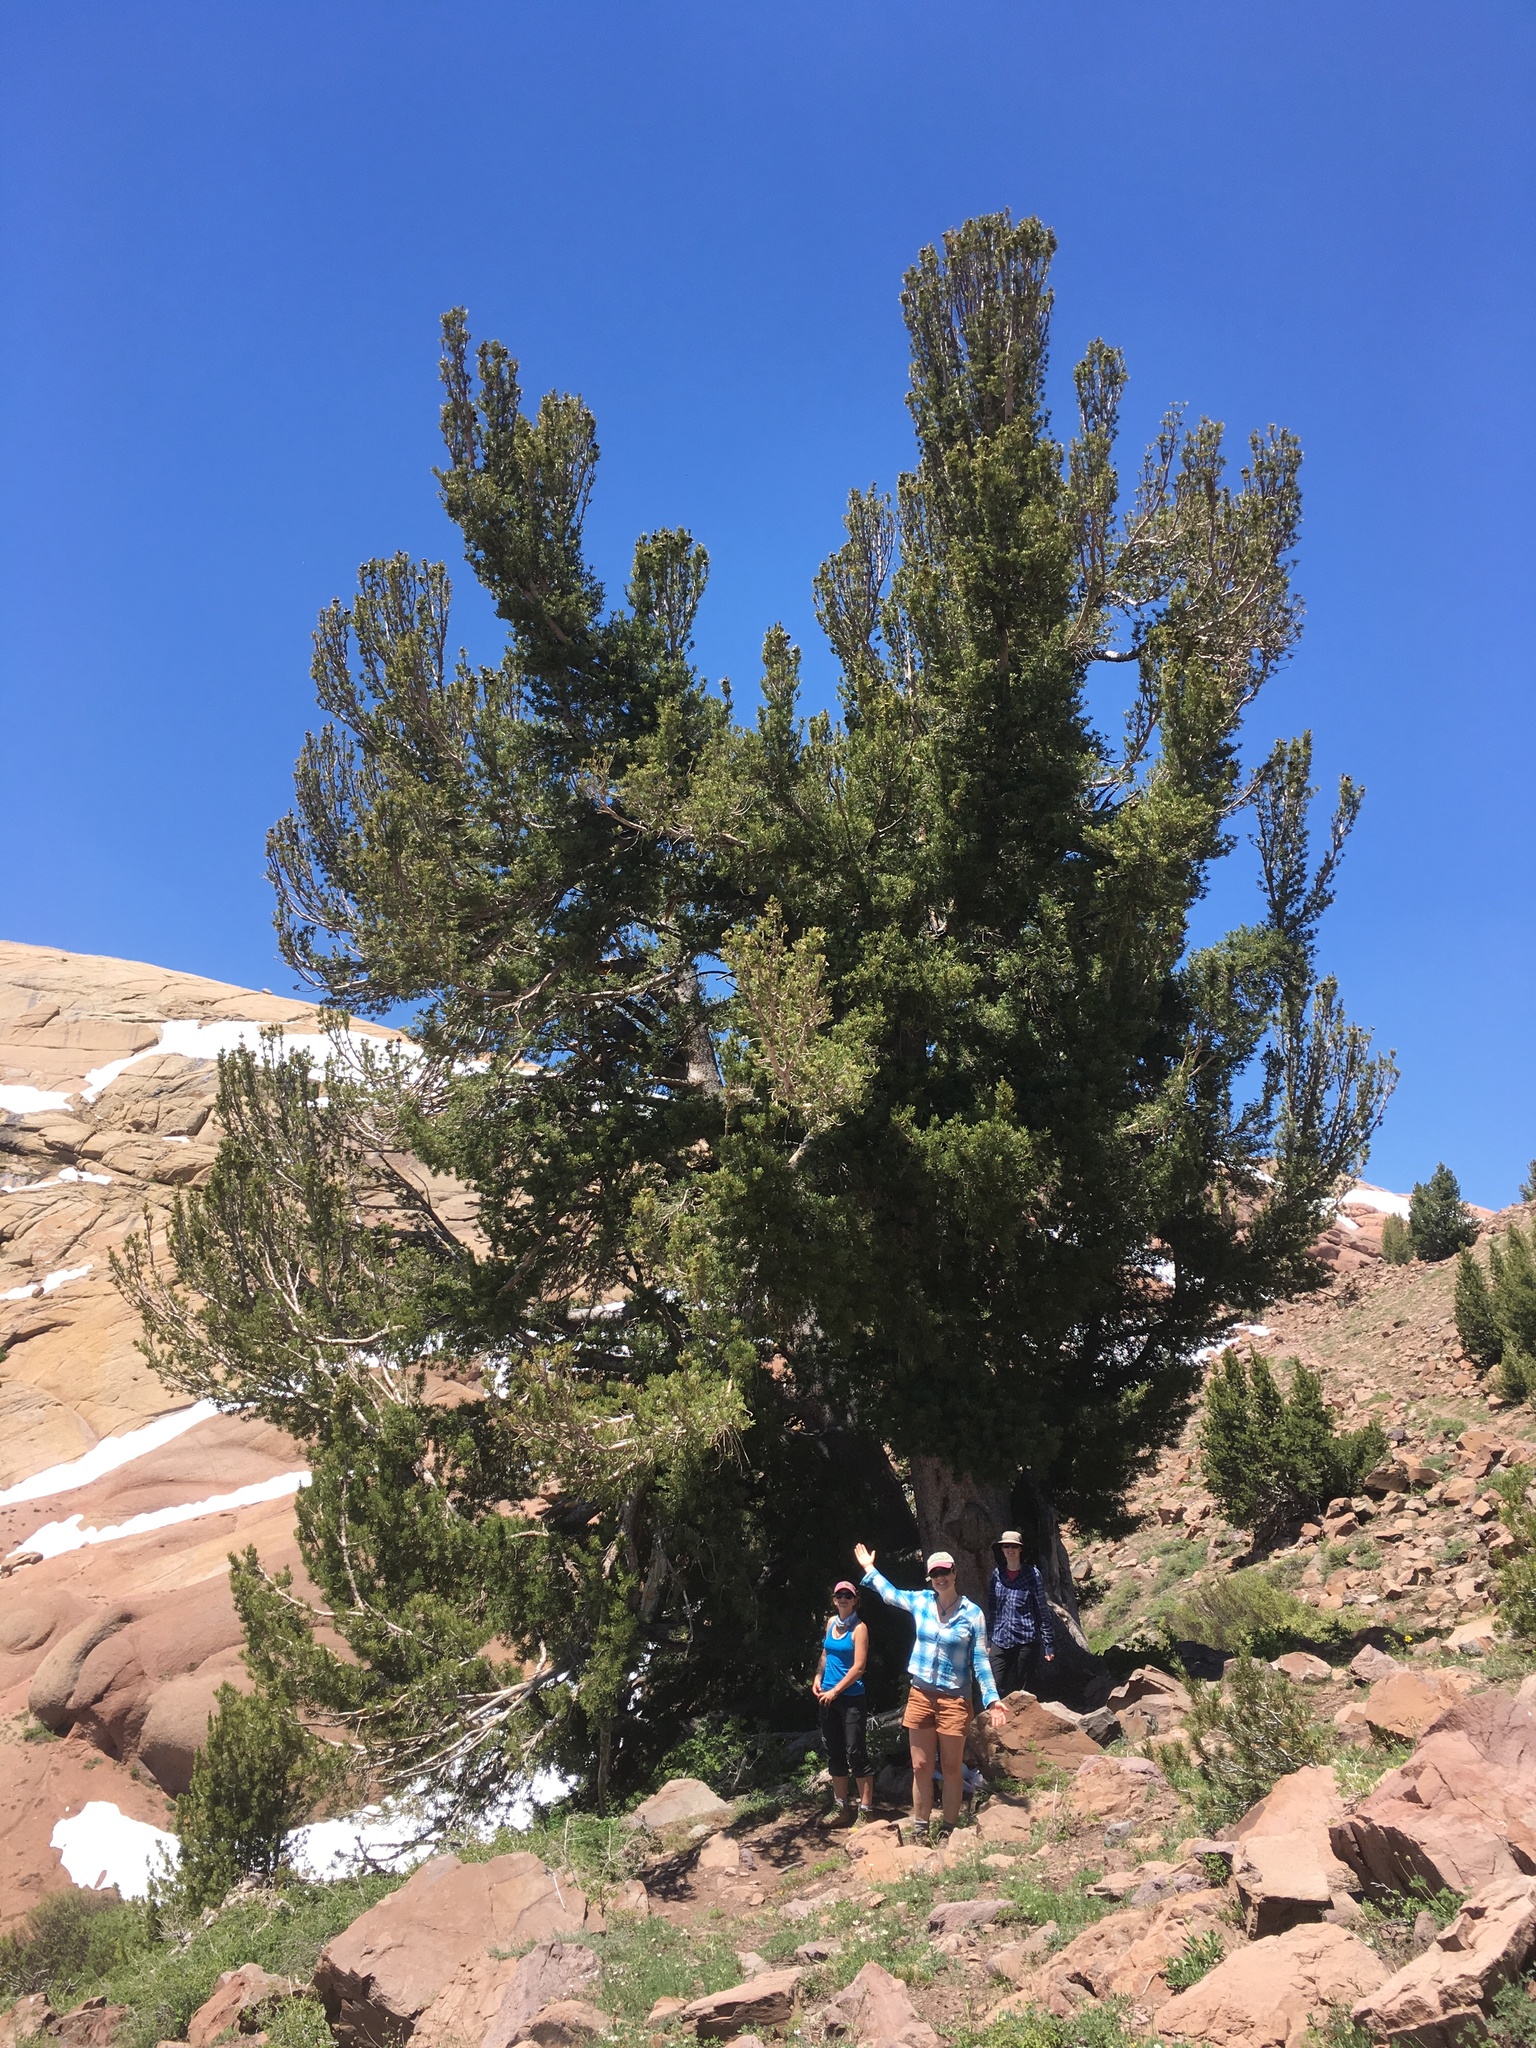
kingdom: Plantae
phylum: Tracheophyta
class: Pinopsida
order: Pinales
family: Pinaceae
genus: Pinus
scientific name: Pinus albicaulis
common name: Whitebark pine
